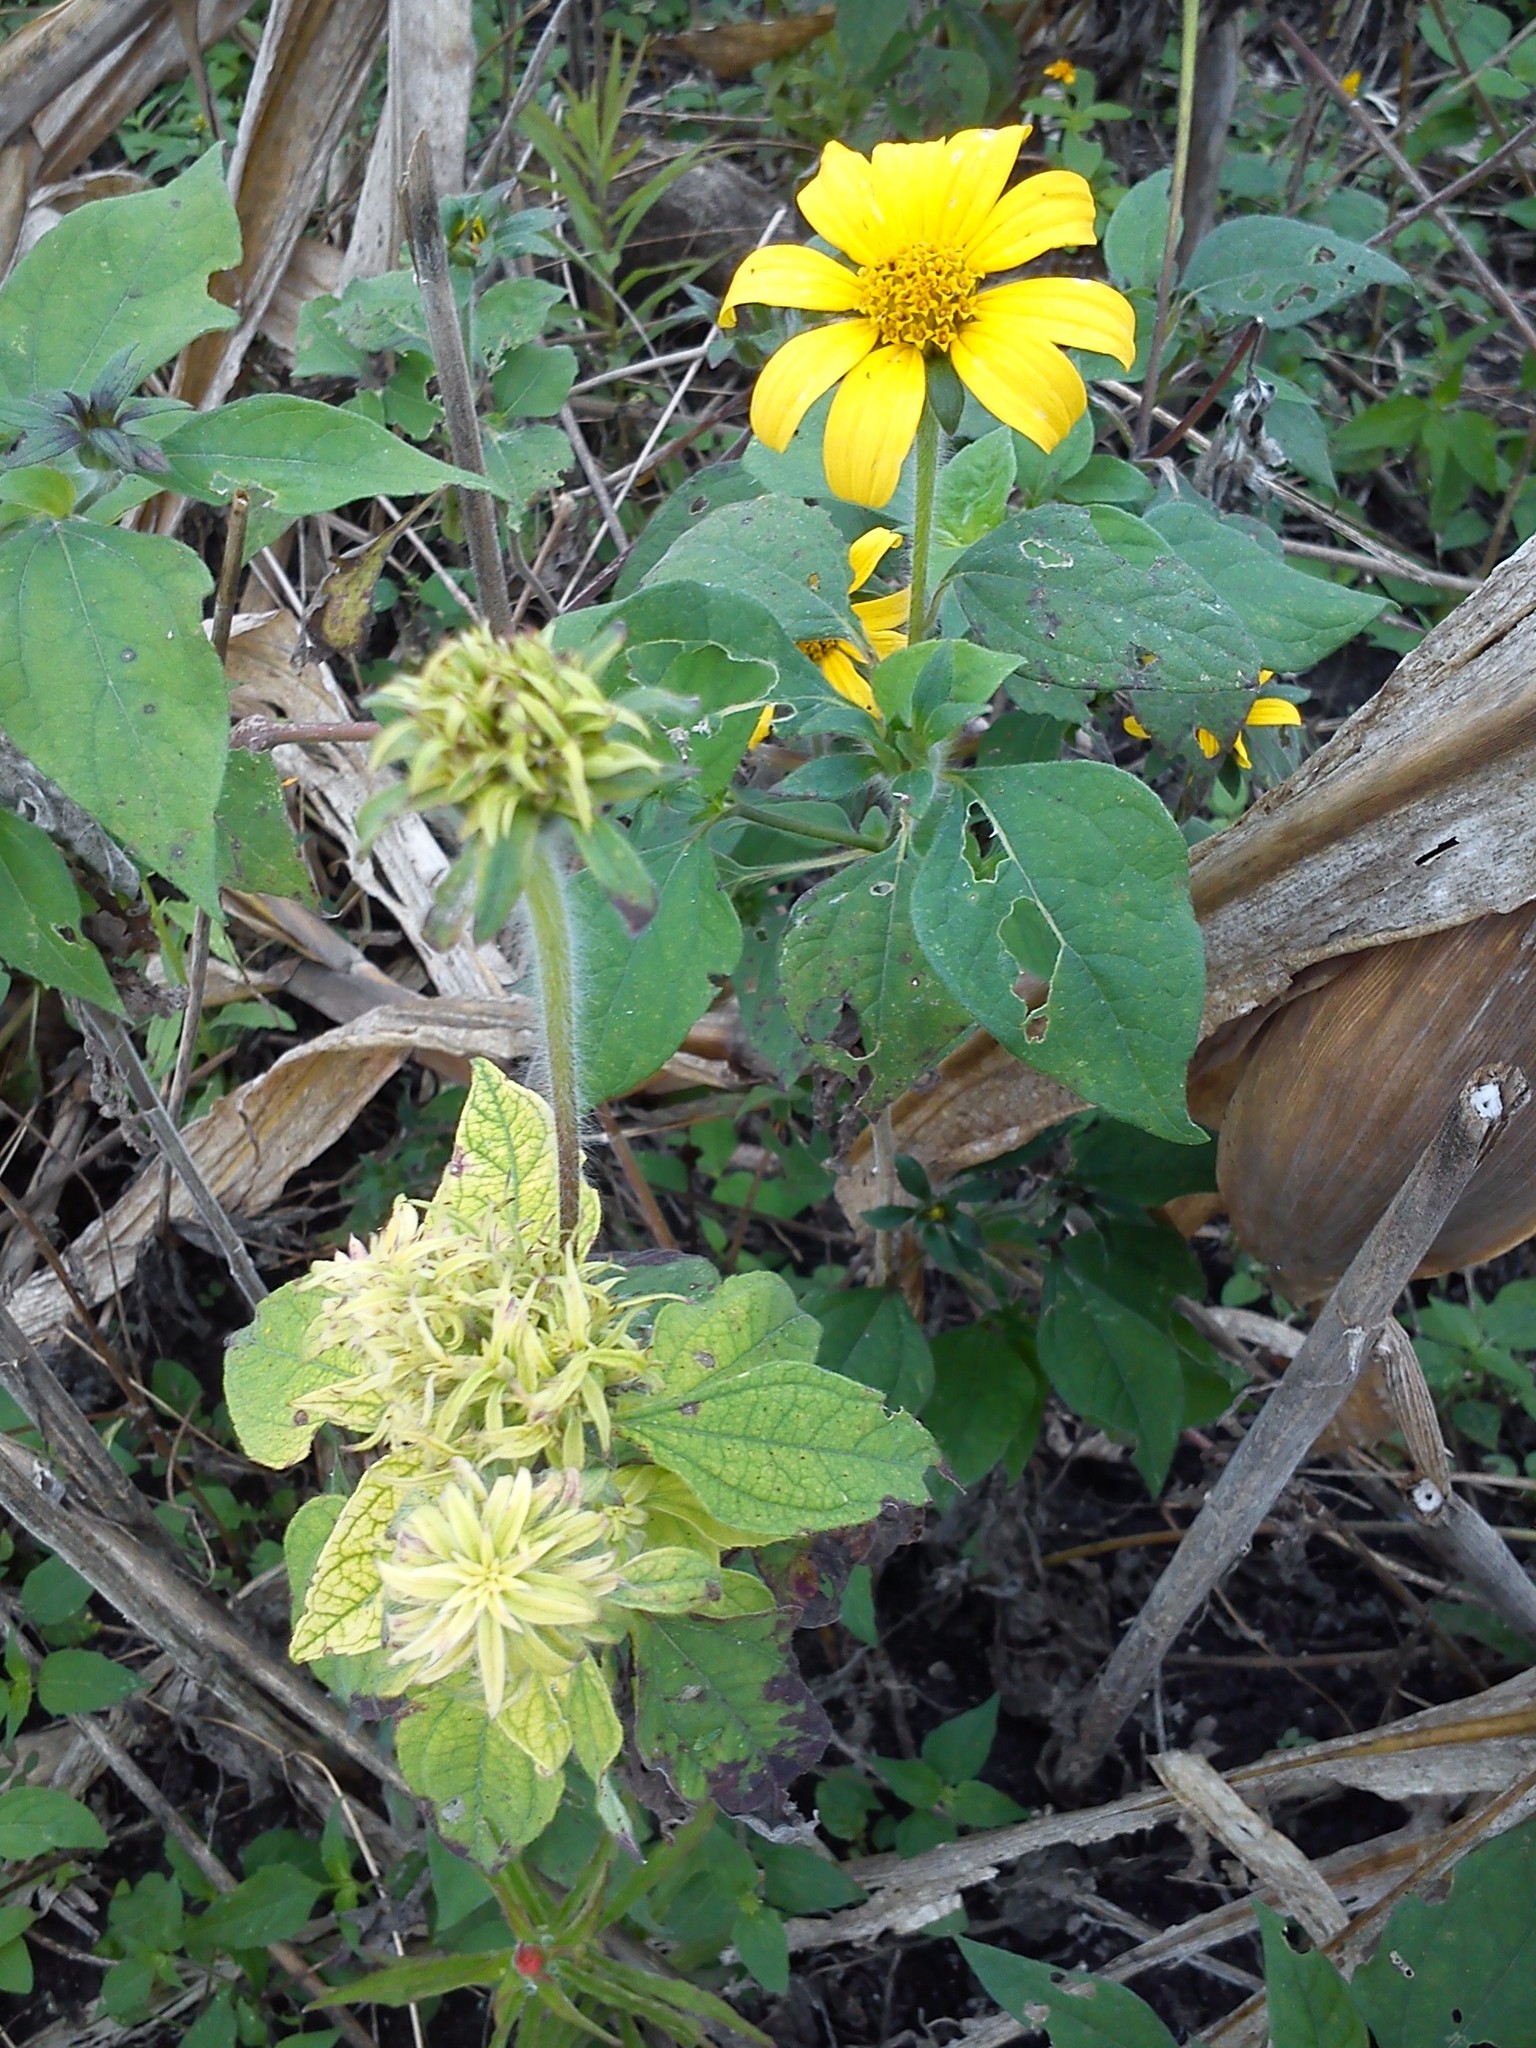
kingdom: Plantae
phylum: Tracheophyta
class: Magnoliopsida
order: Asterales
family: Asteraceae
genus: Tithonia
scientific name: Tithonia tubaeformis
